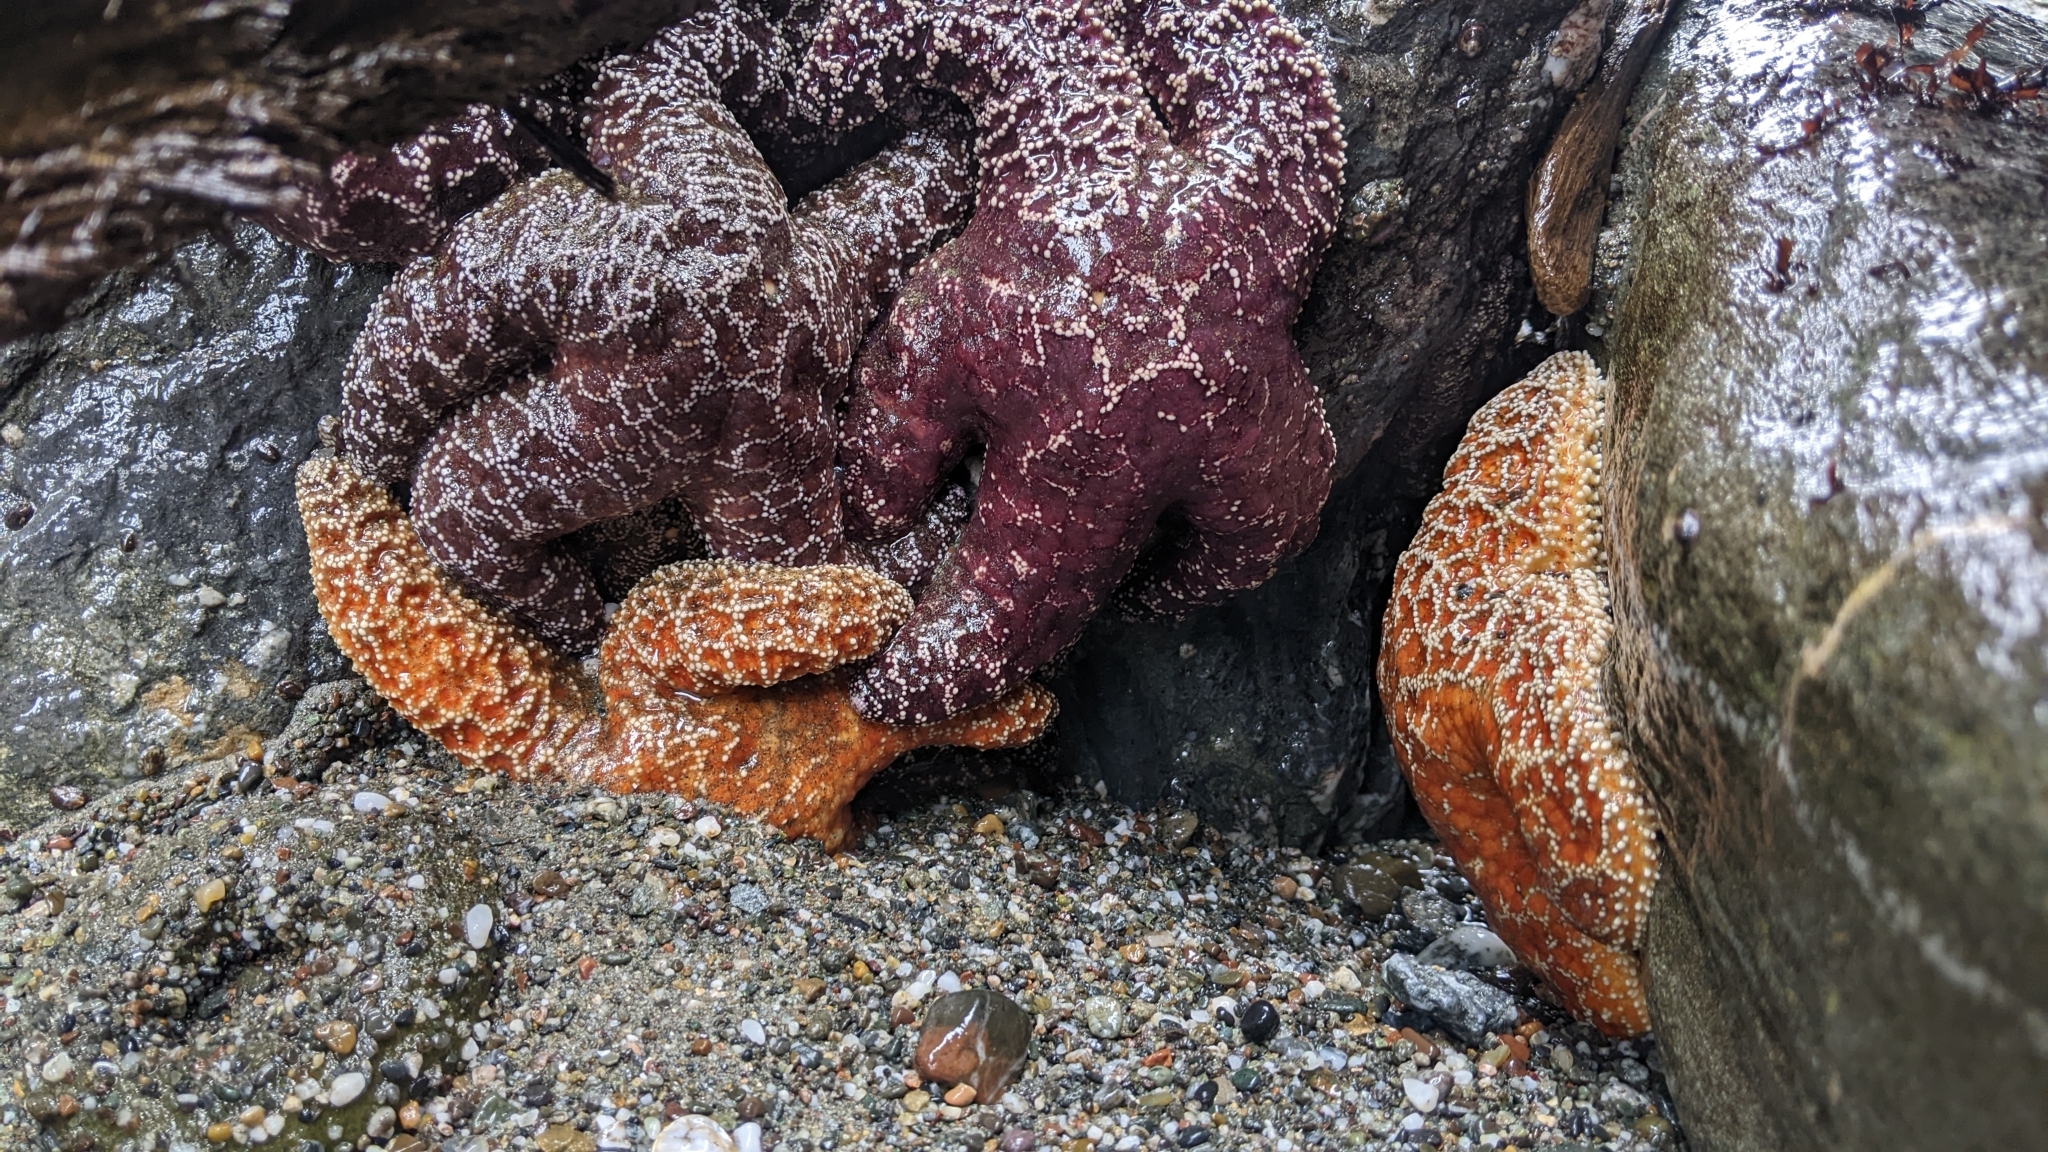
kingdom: Animalia
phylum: Echinodermata
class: Asteroidea
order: Forcipulatida
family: Asteriidae
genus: Pisaster
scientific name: Pisaster ochraceus
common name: Ochre stars
